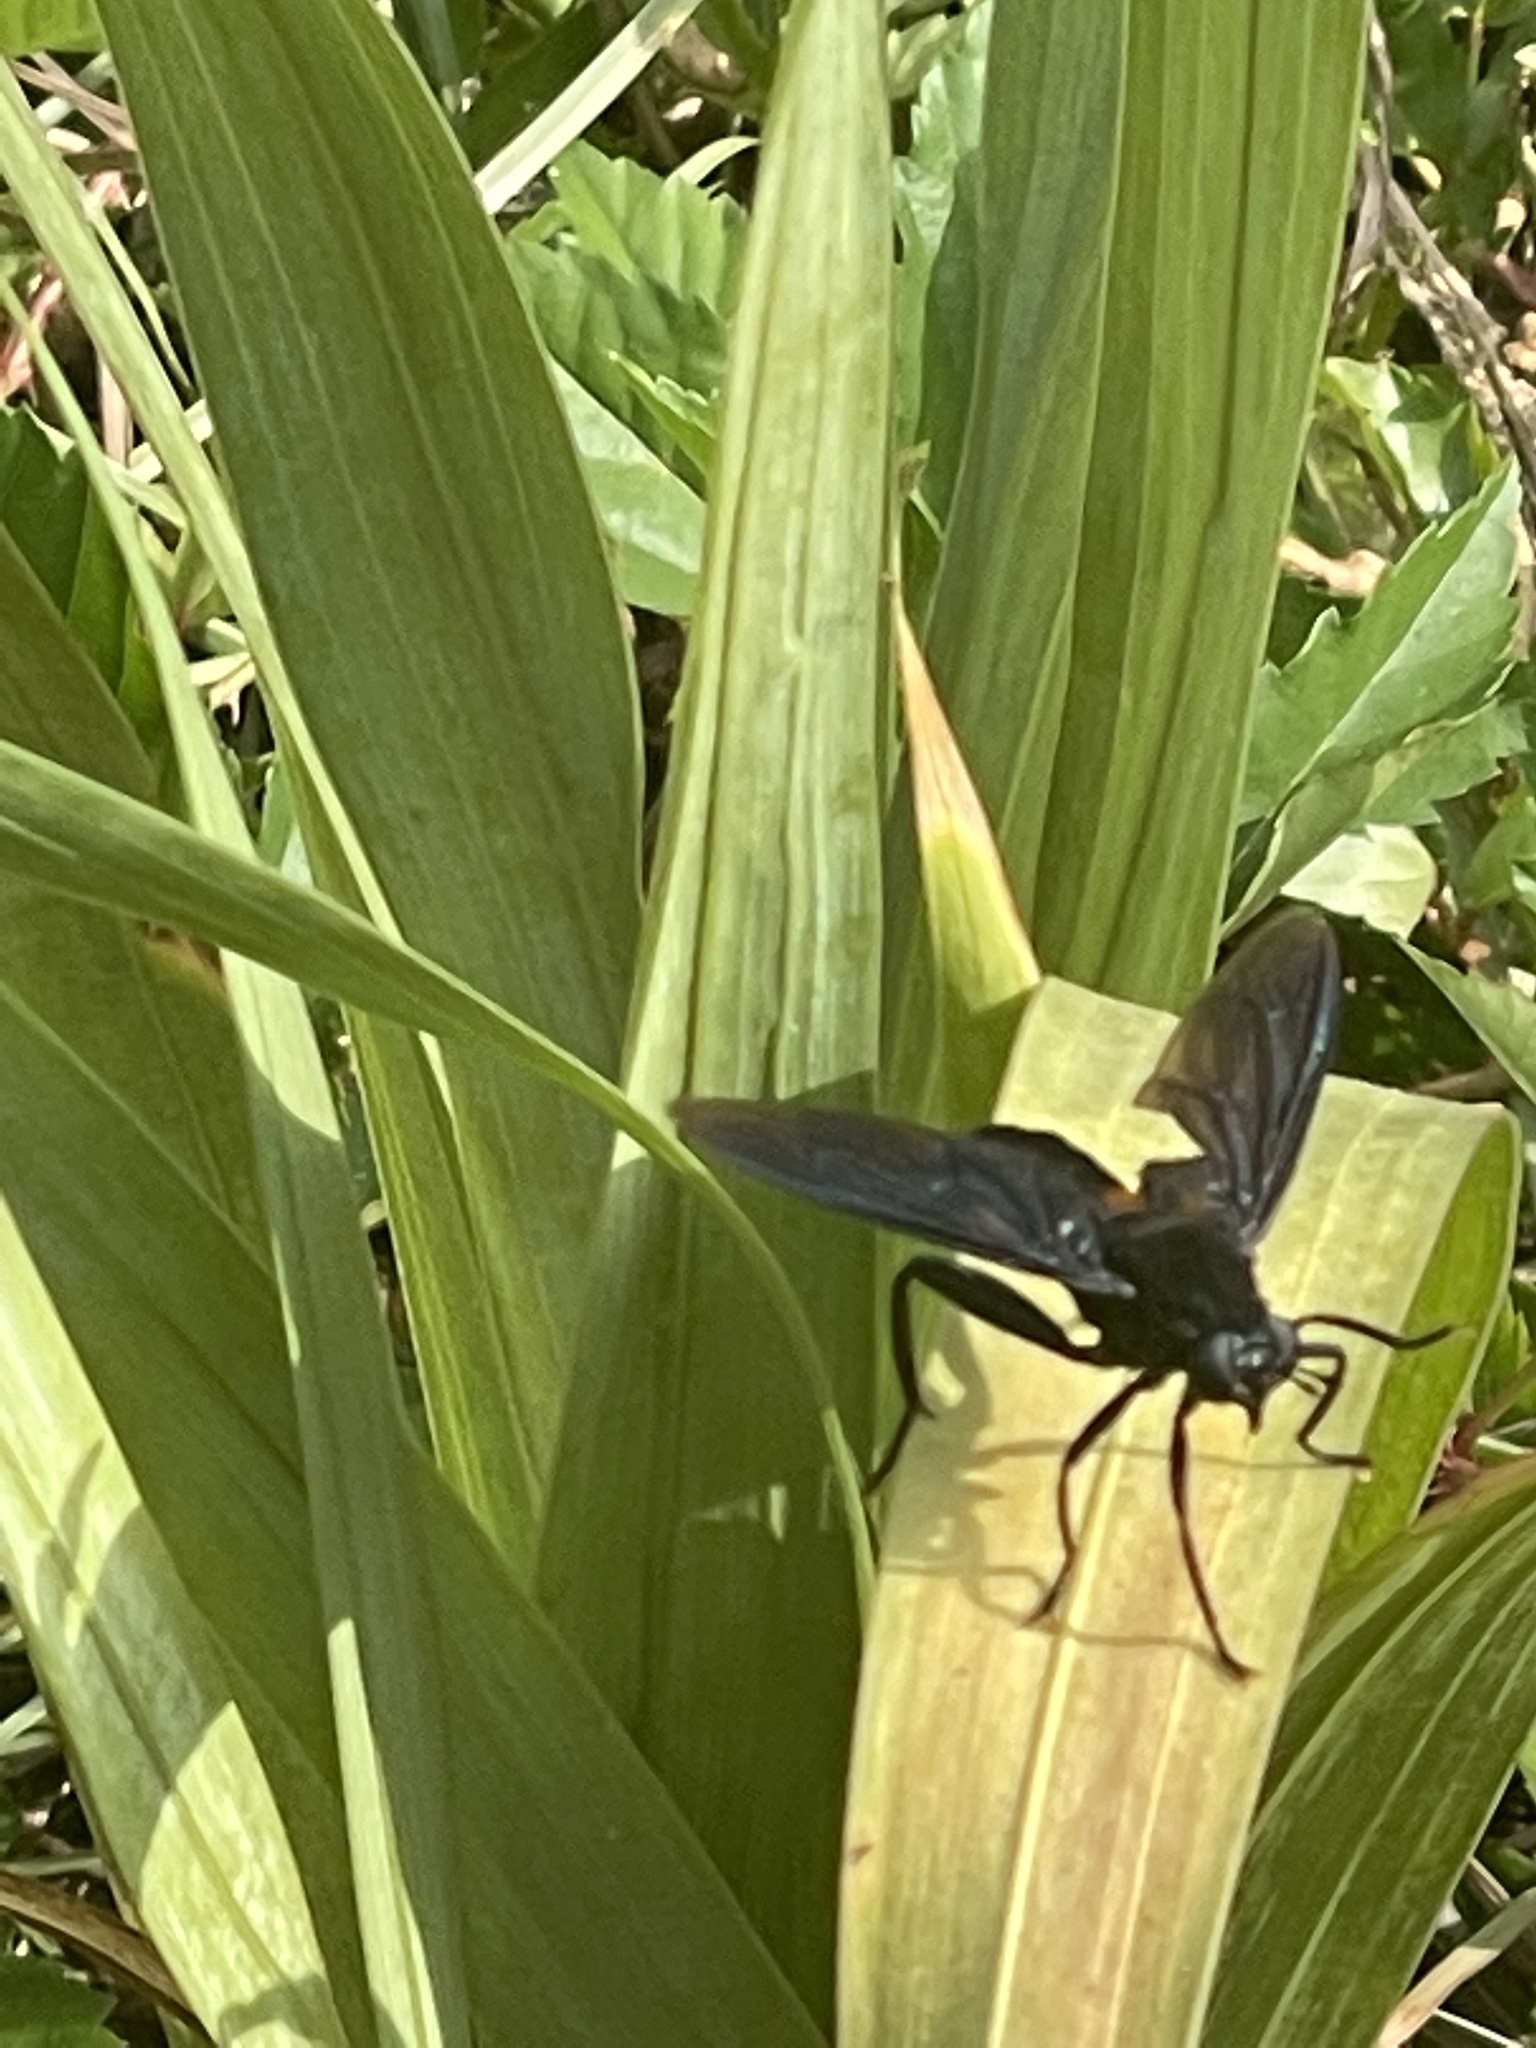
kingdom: Animalia
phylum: Arthropoda
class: Insecta
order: Diptera
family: Mydidae
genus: Mydas
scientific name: Mydas clavatus
